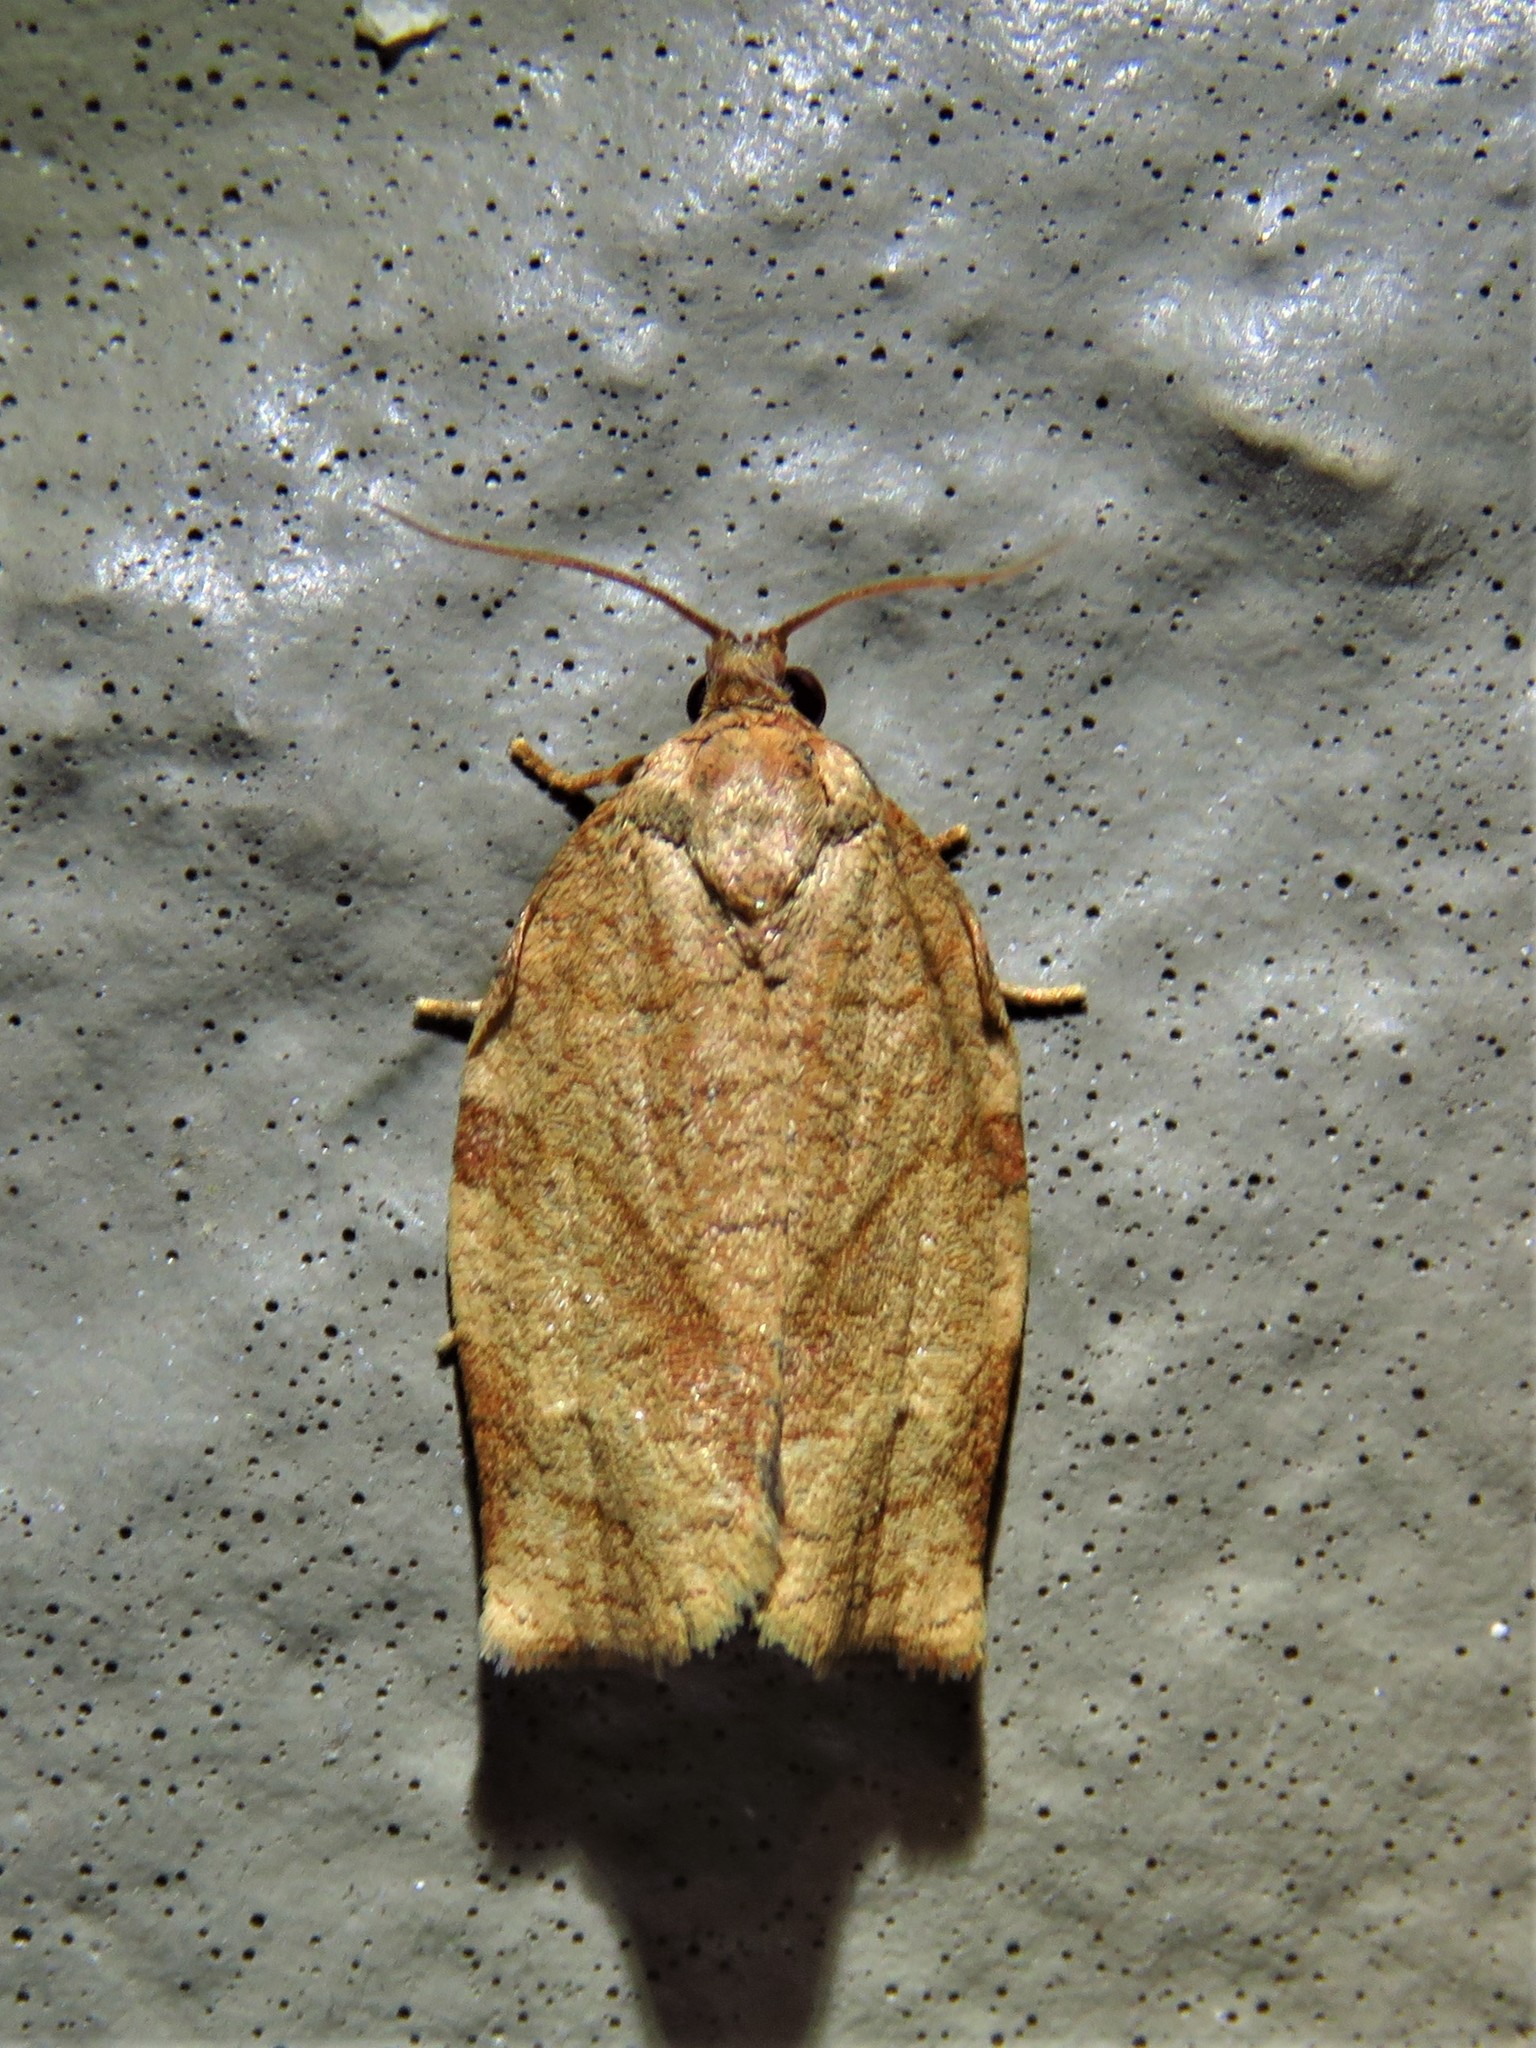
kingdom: Animalia
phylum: Arthropoda
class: Insecta
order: Lepidoptera
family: Tortricidae
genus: Choristoneura
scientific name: Choristoneura rosaceana
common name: Oblique-banded leafroller moth
